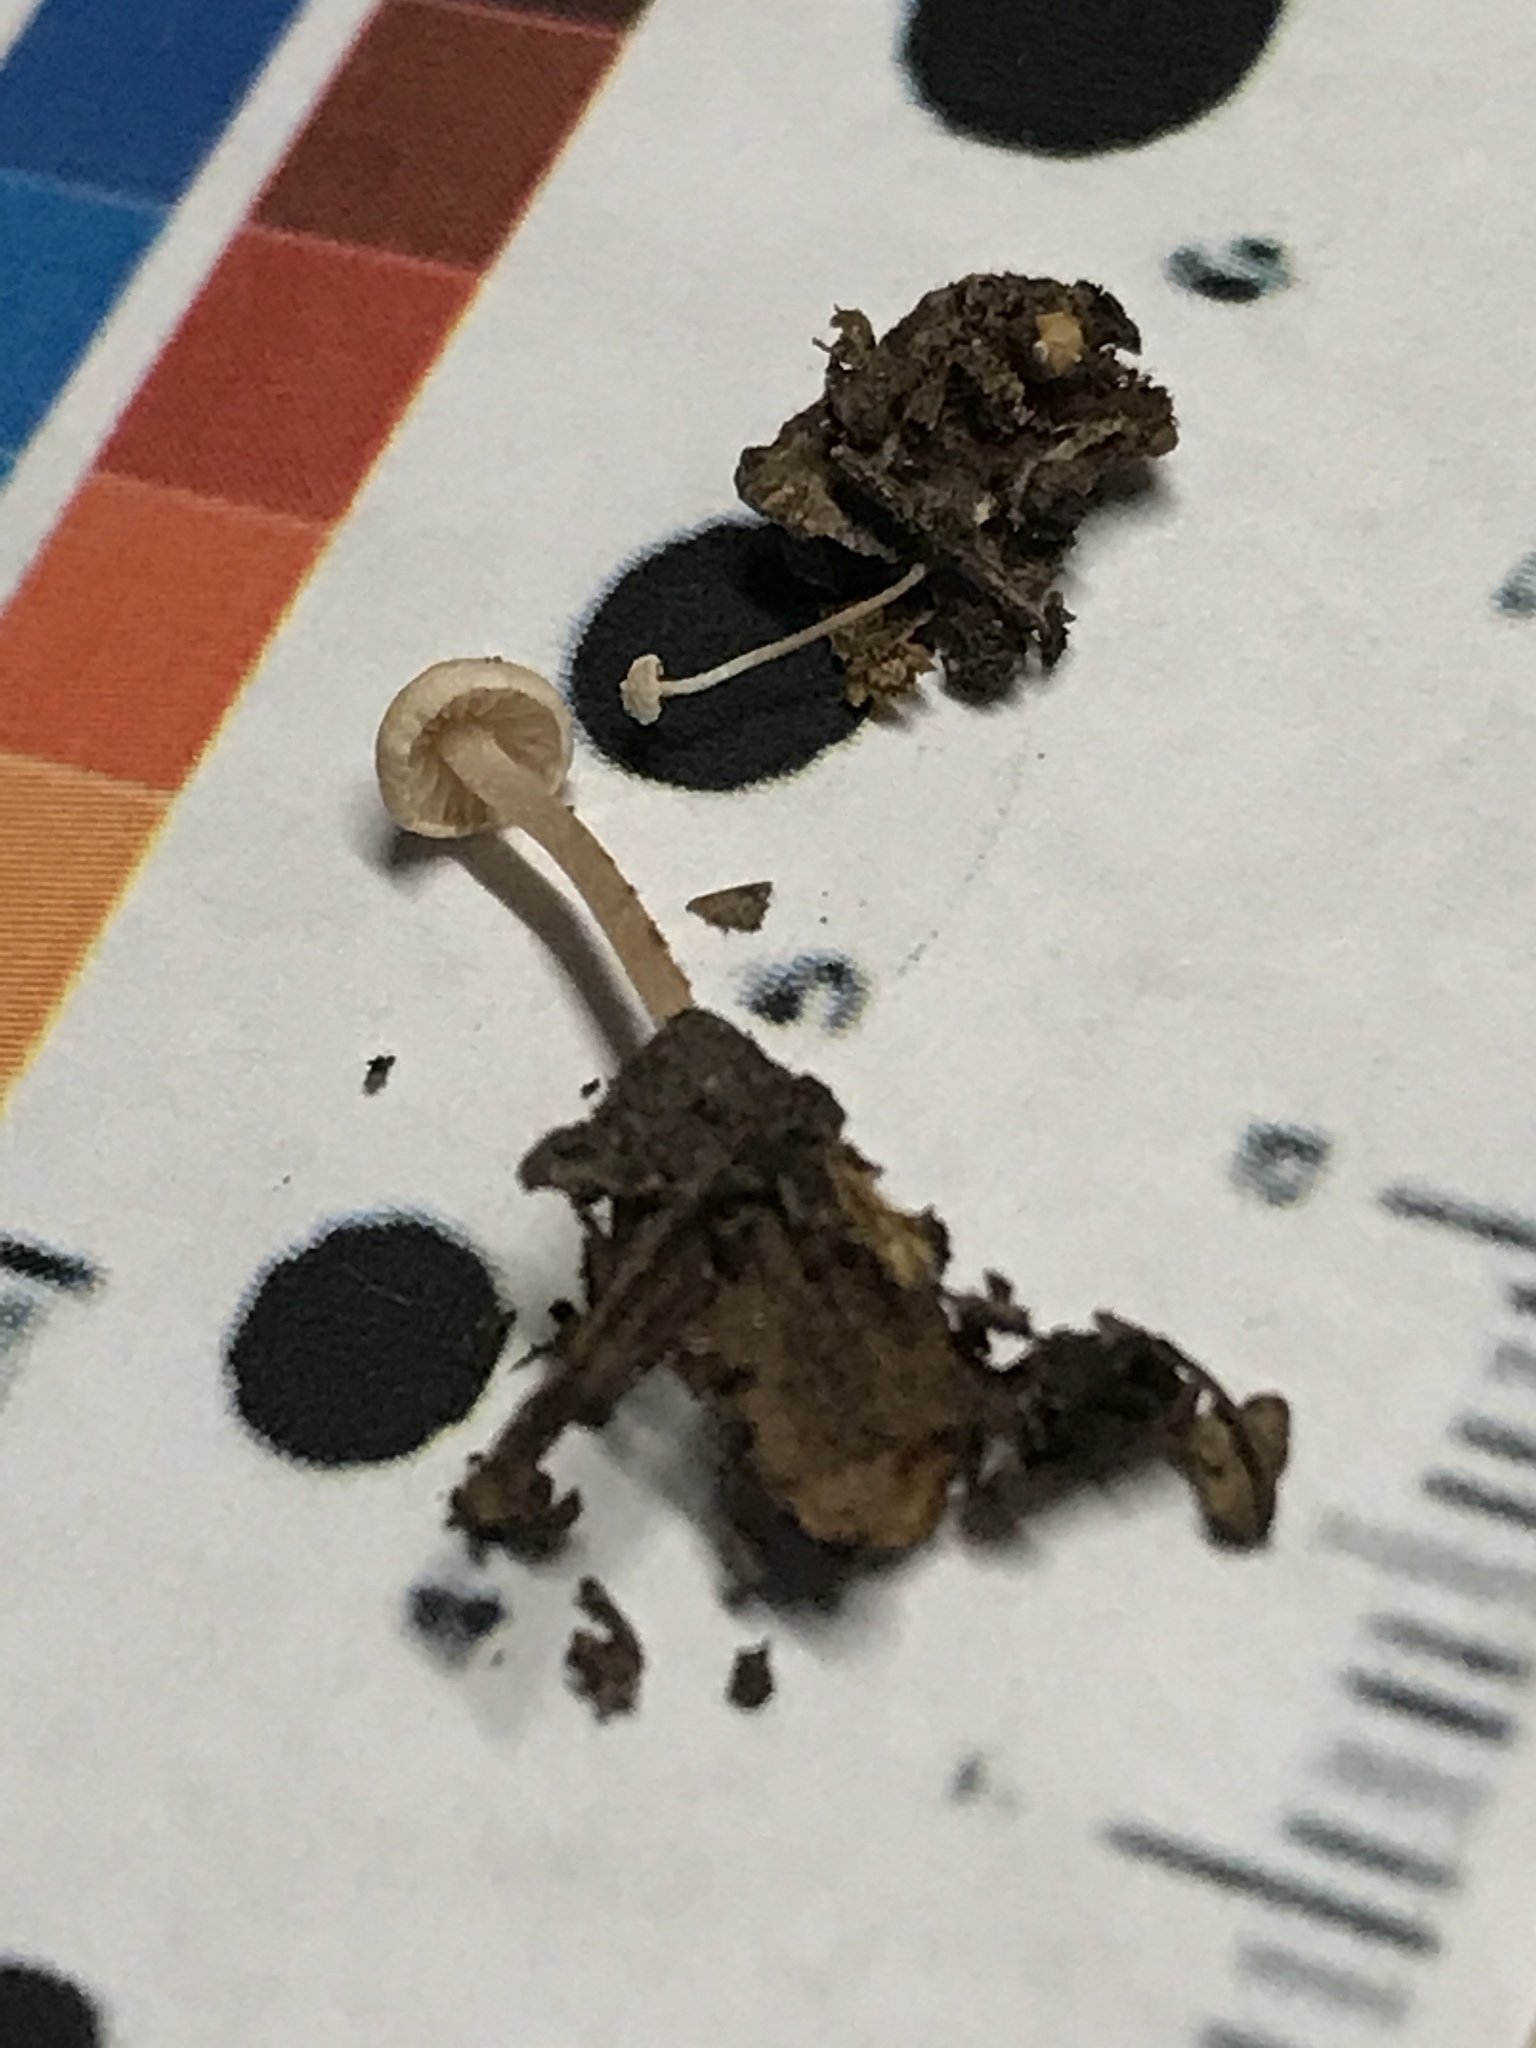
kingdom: Fungi
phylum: Basidiomycota
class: Agaricomycetes
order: Agaricales
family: Tricholomataceae
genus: Collybia
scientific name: Collybia cookei
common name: Splitpea shanklet
